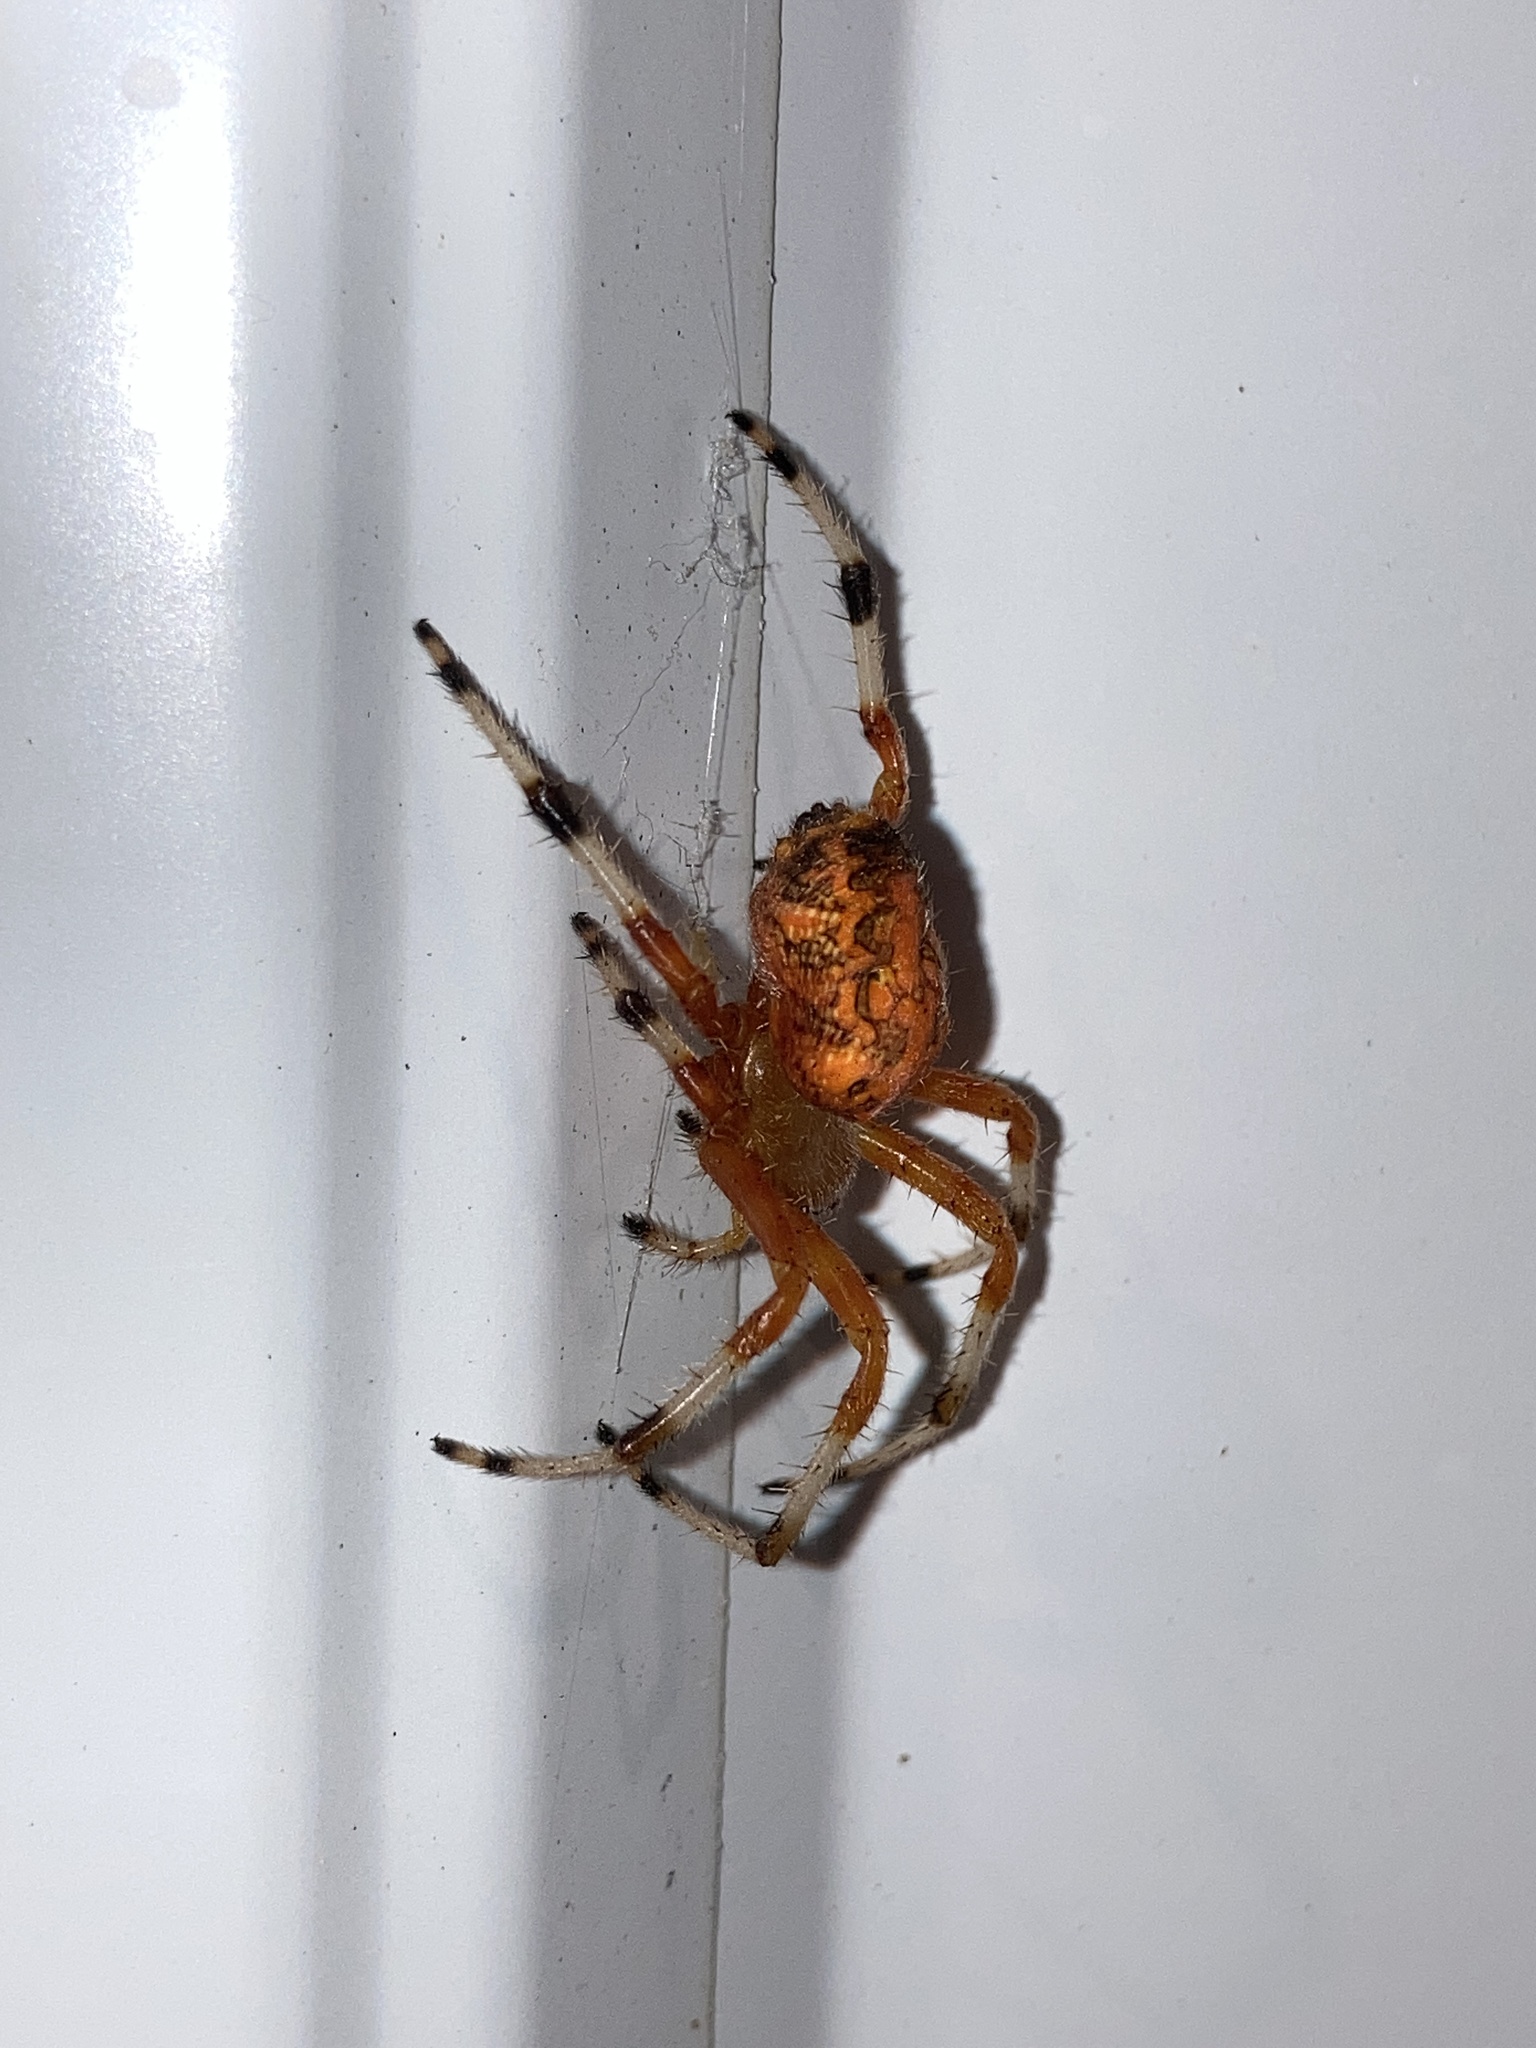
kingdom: Animalia
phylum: Arthropoda
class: Arachnida
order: Araneae
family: Araneidae
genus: Araneus
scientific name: Araneus marmoreus
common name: Marbled orbweaver
